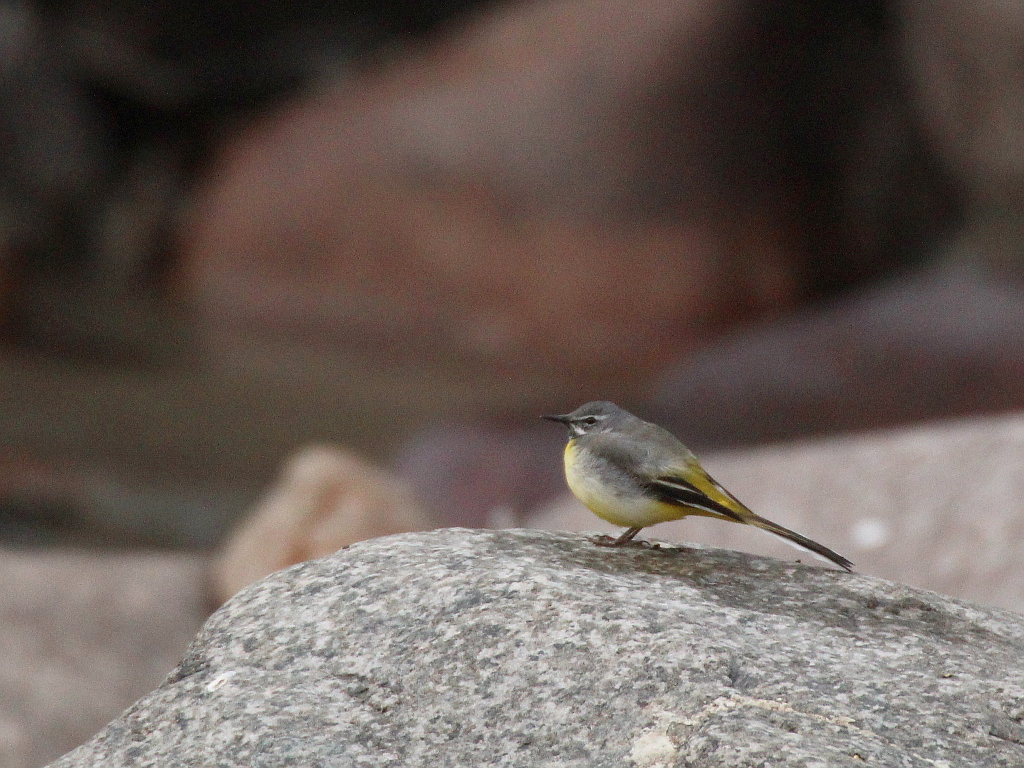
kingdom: Animalia
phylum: Chordata
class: Aves
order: Passeriformes
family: Motacillidae
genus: Motacilla
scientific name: Motacilla cinerea
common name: Grey wagtail
